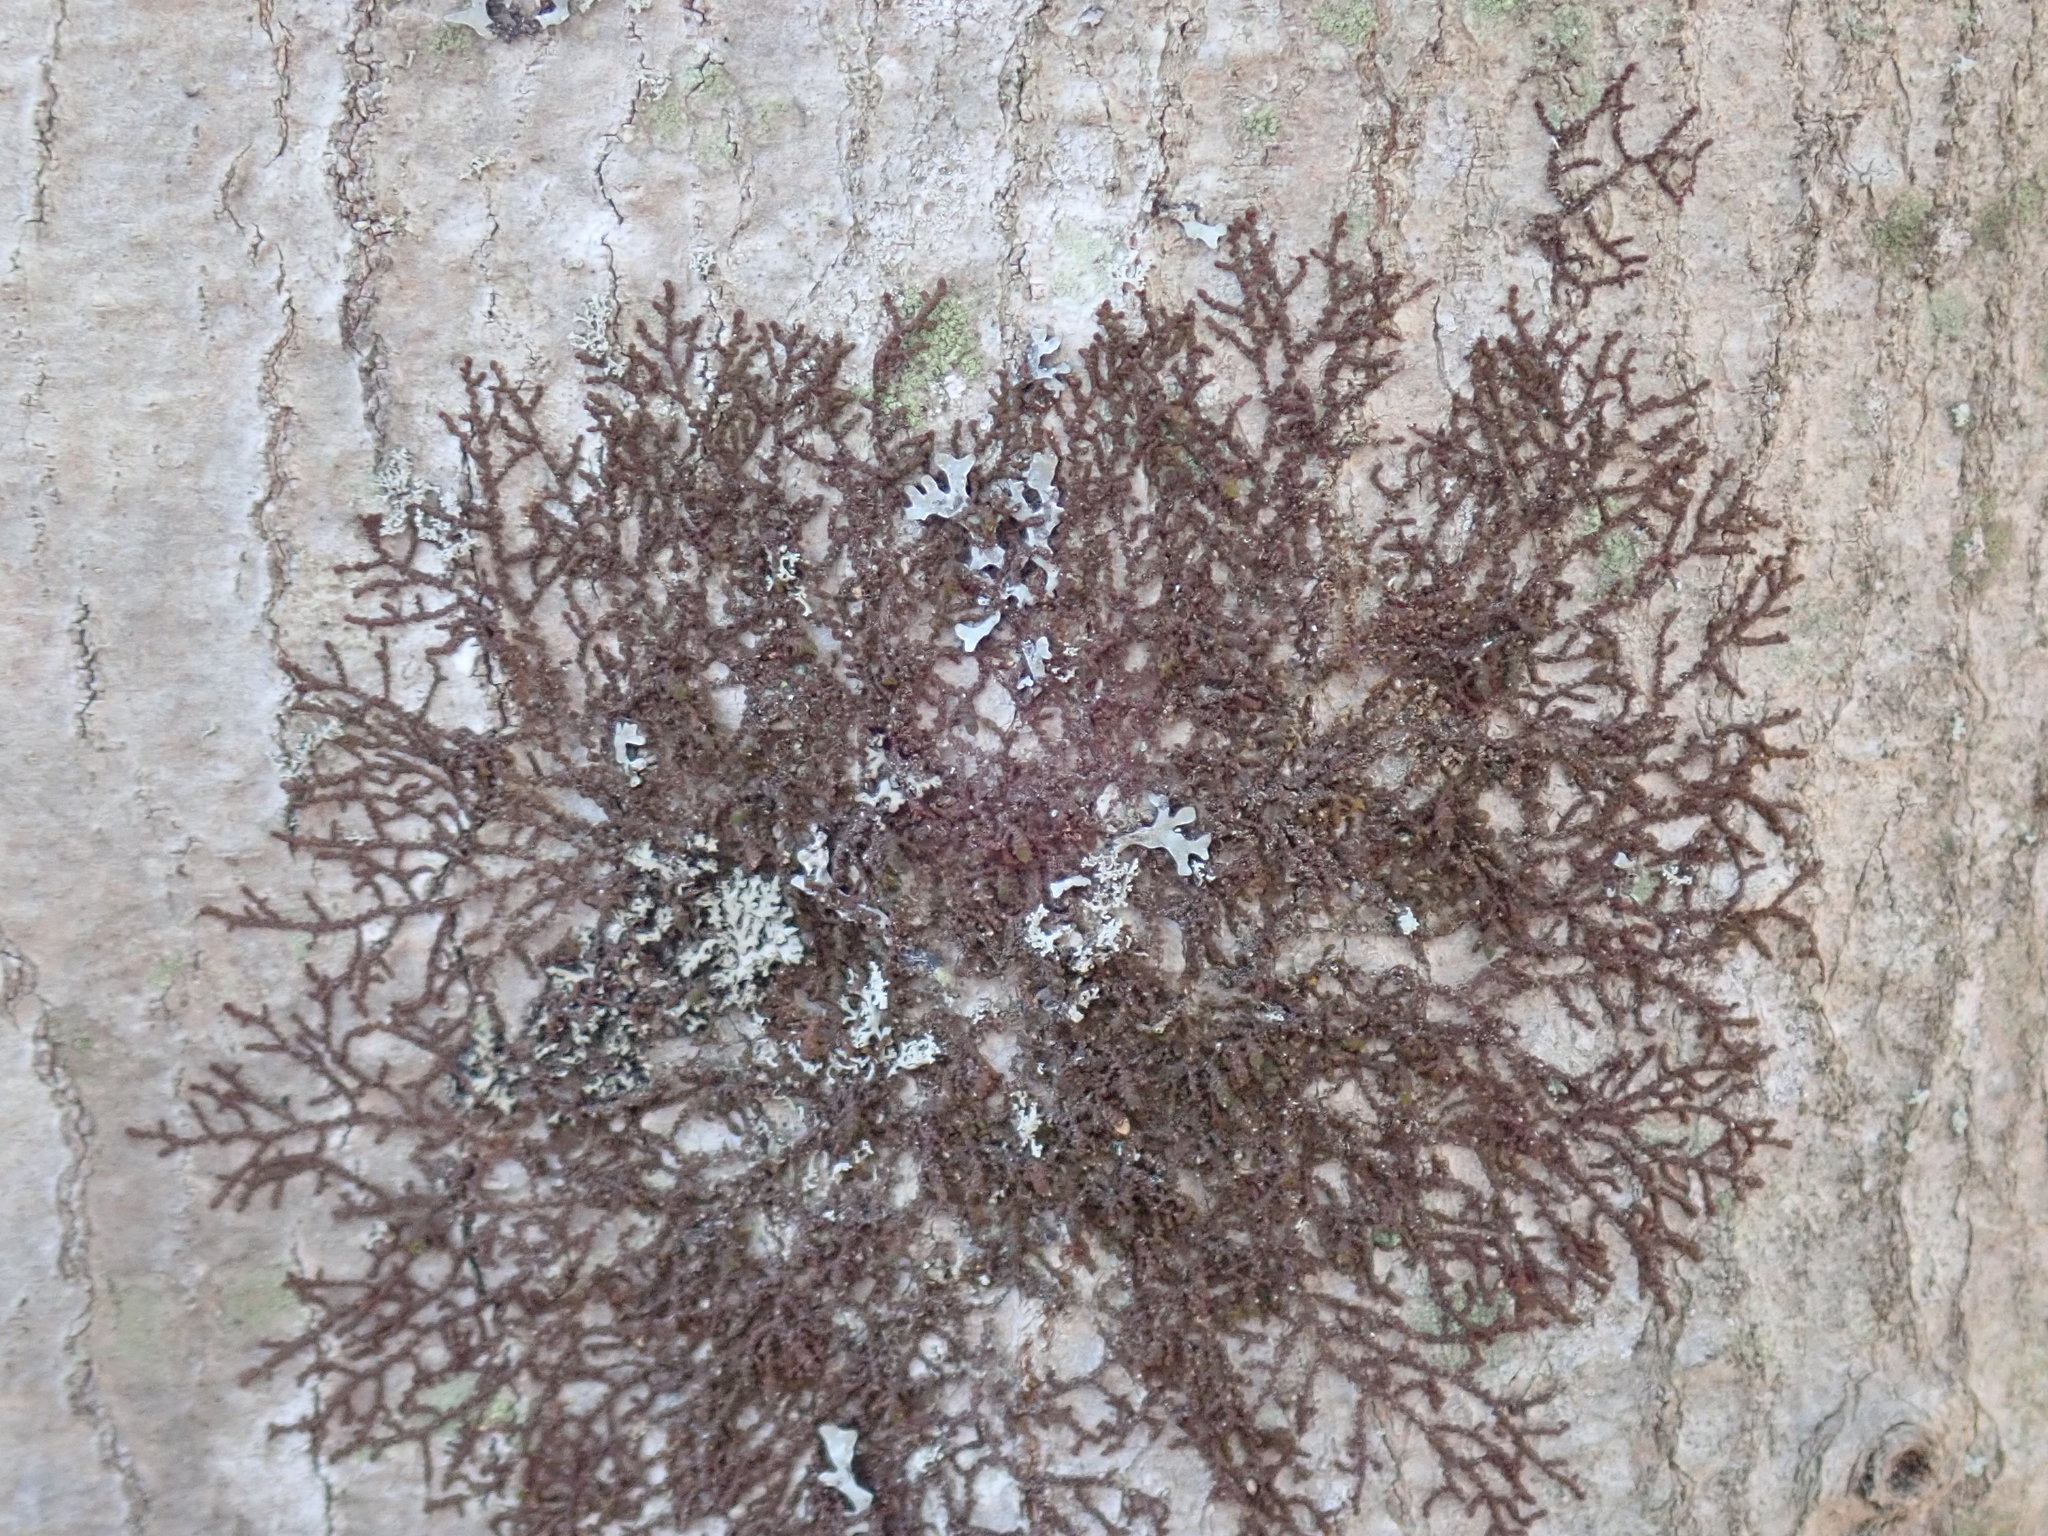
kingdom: Plantae
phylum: Marchantiophyta
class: Jungermanniopsida
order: Porellales
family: Frullaniaceae
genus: Frullania
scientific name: Frullania
